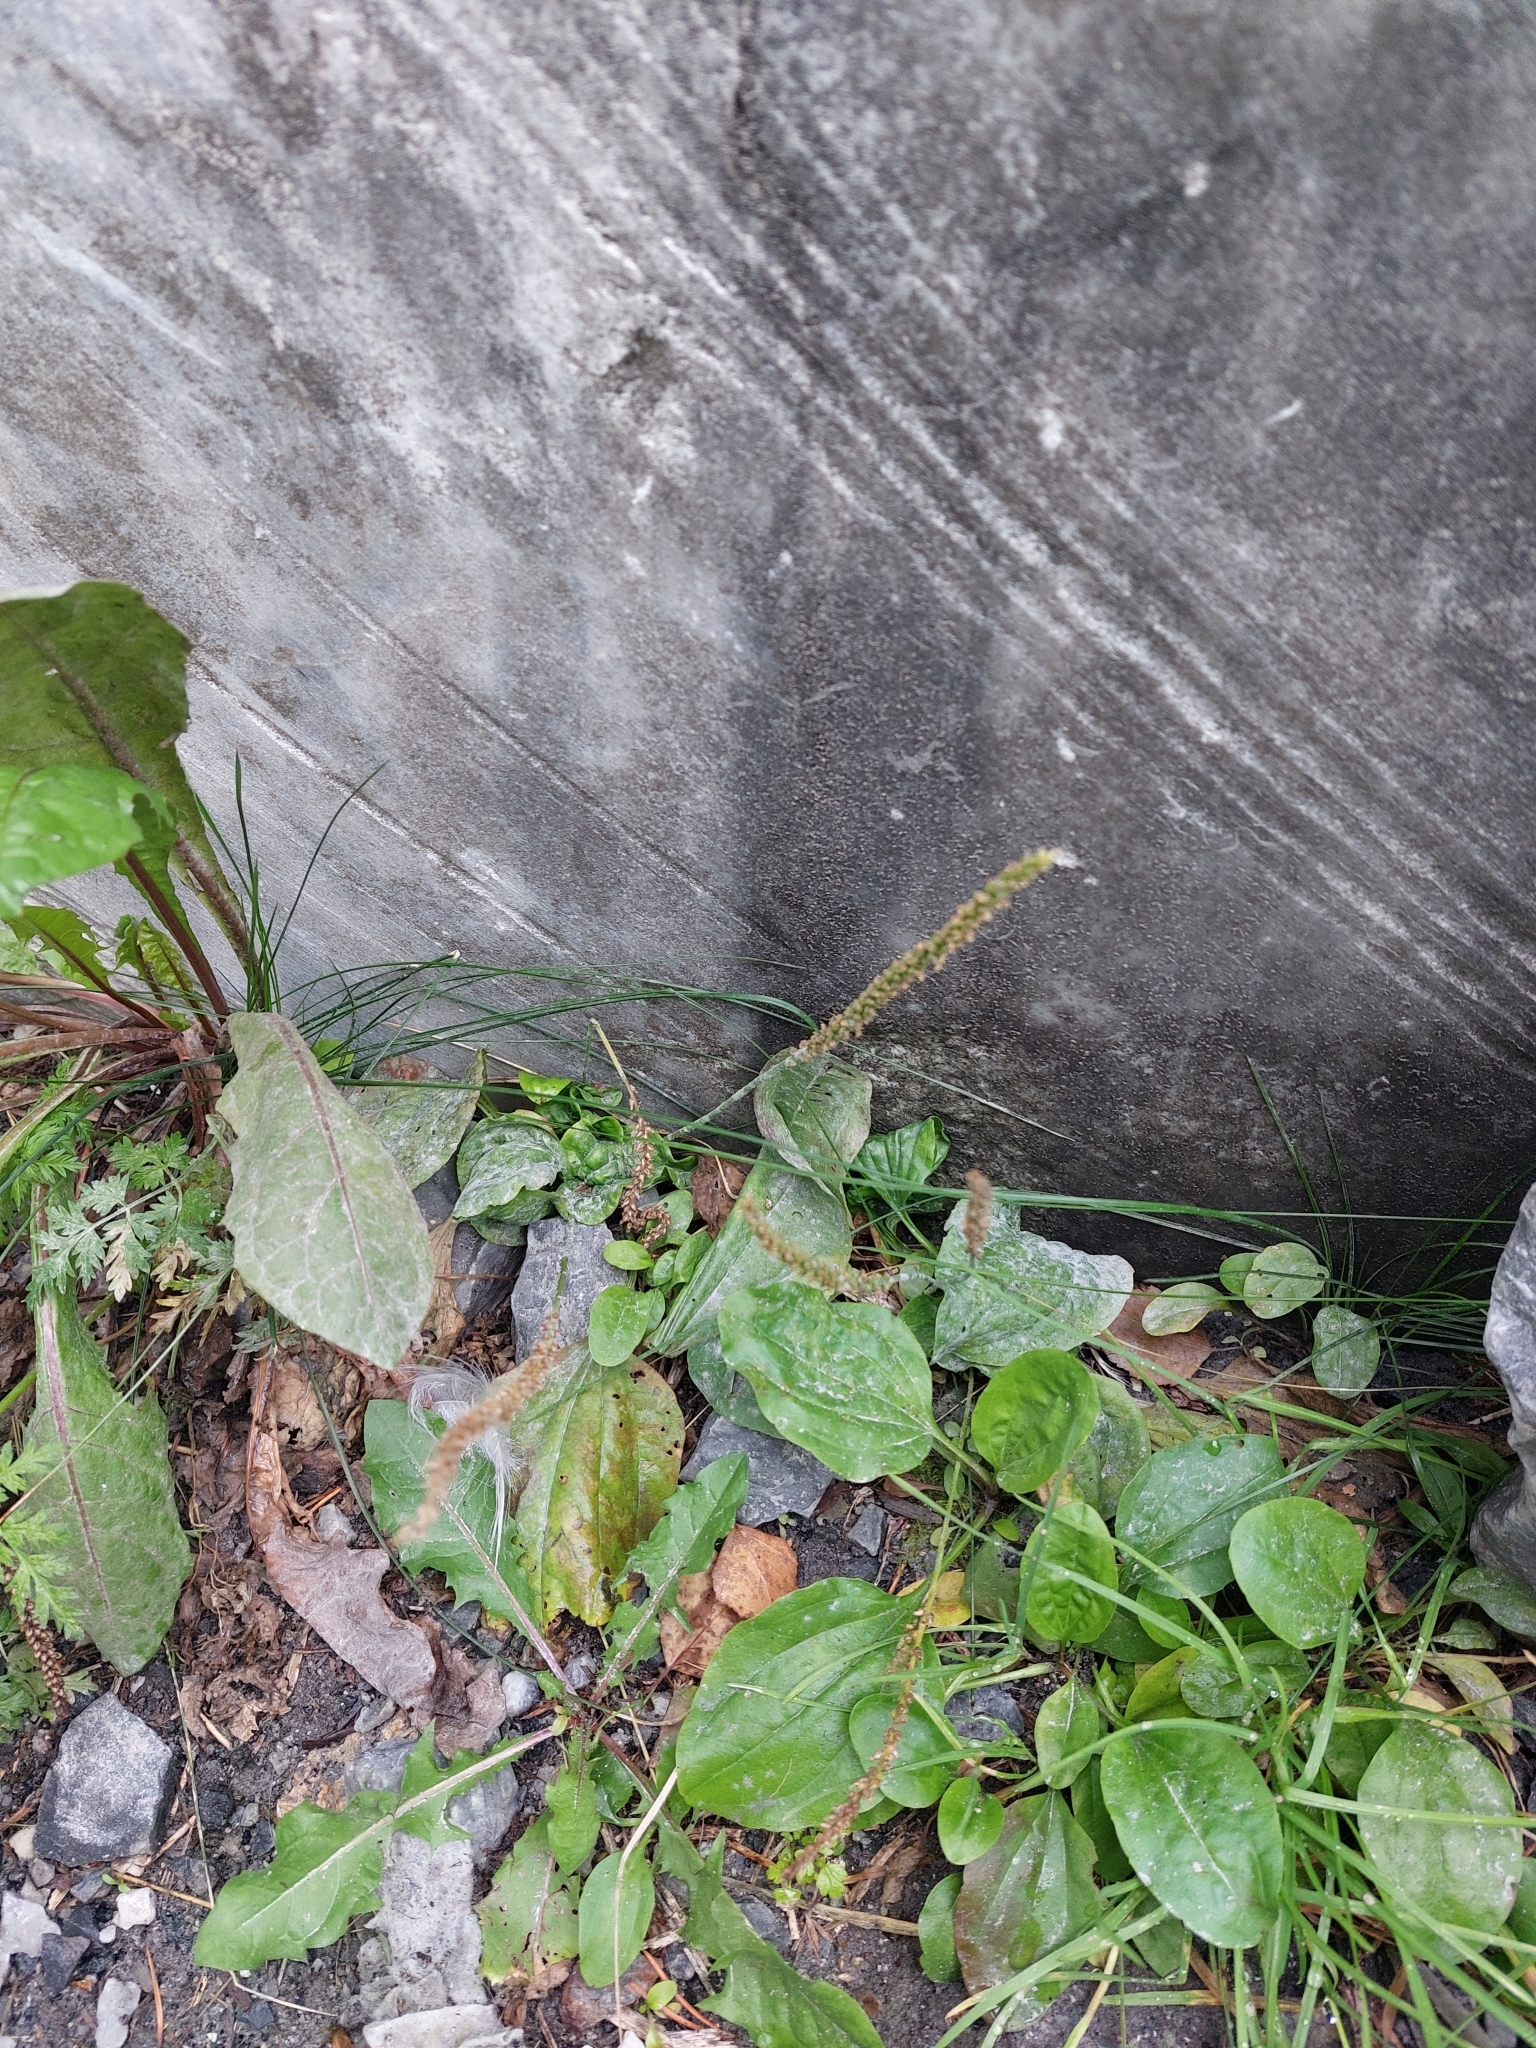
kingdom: Plantae
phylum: Tracheophyta
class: Magnoliopsida
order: Lamiales
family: Plantaginaceae
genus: Plantago
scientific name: Plantago major
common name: Common plantain
